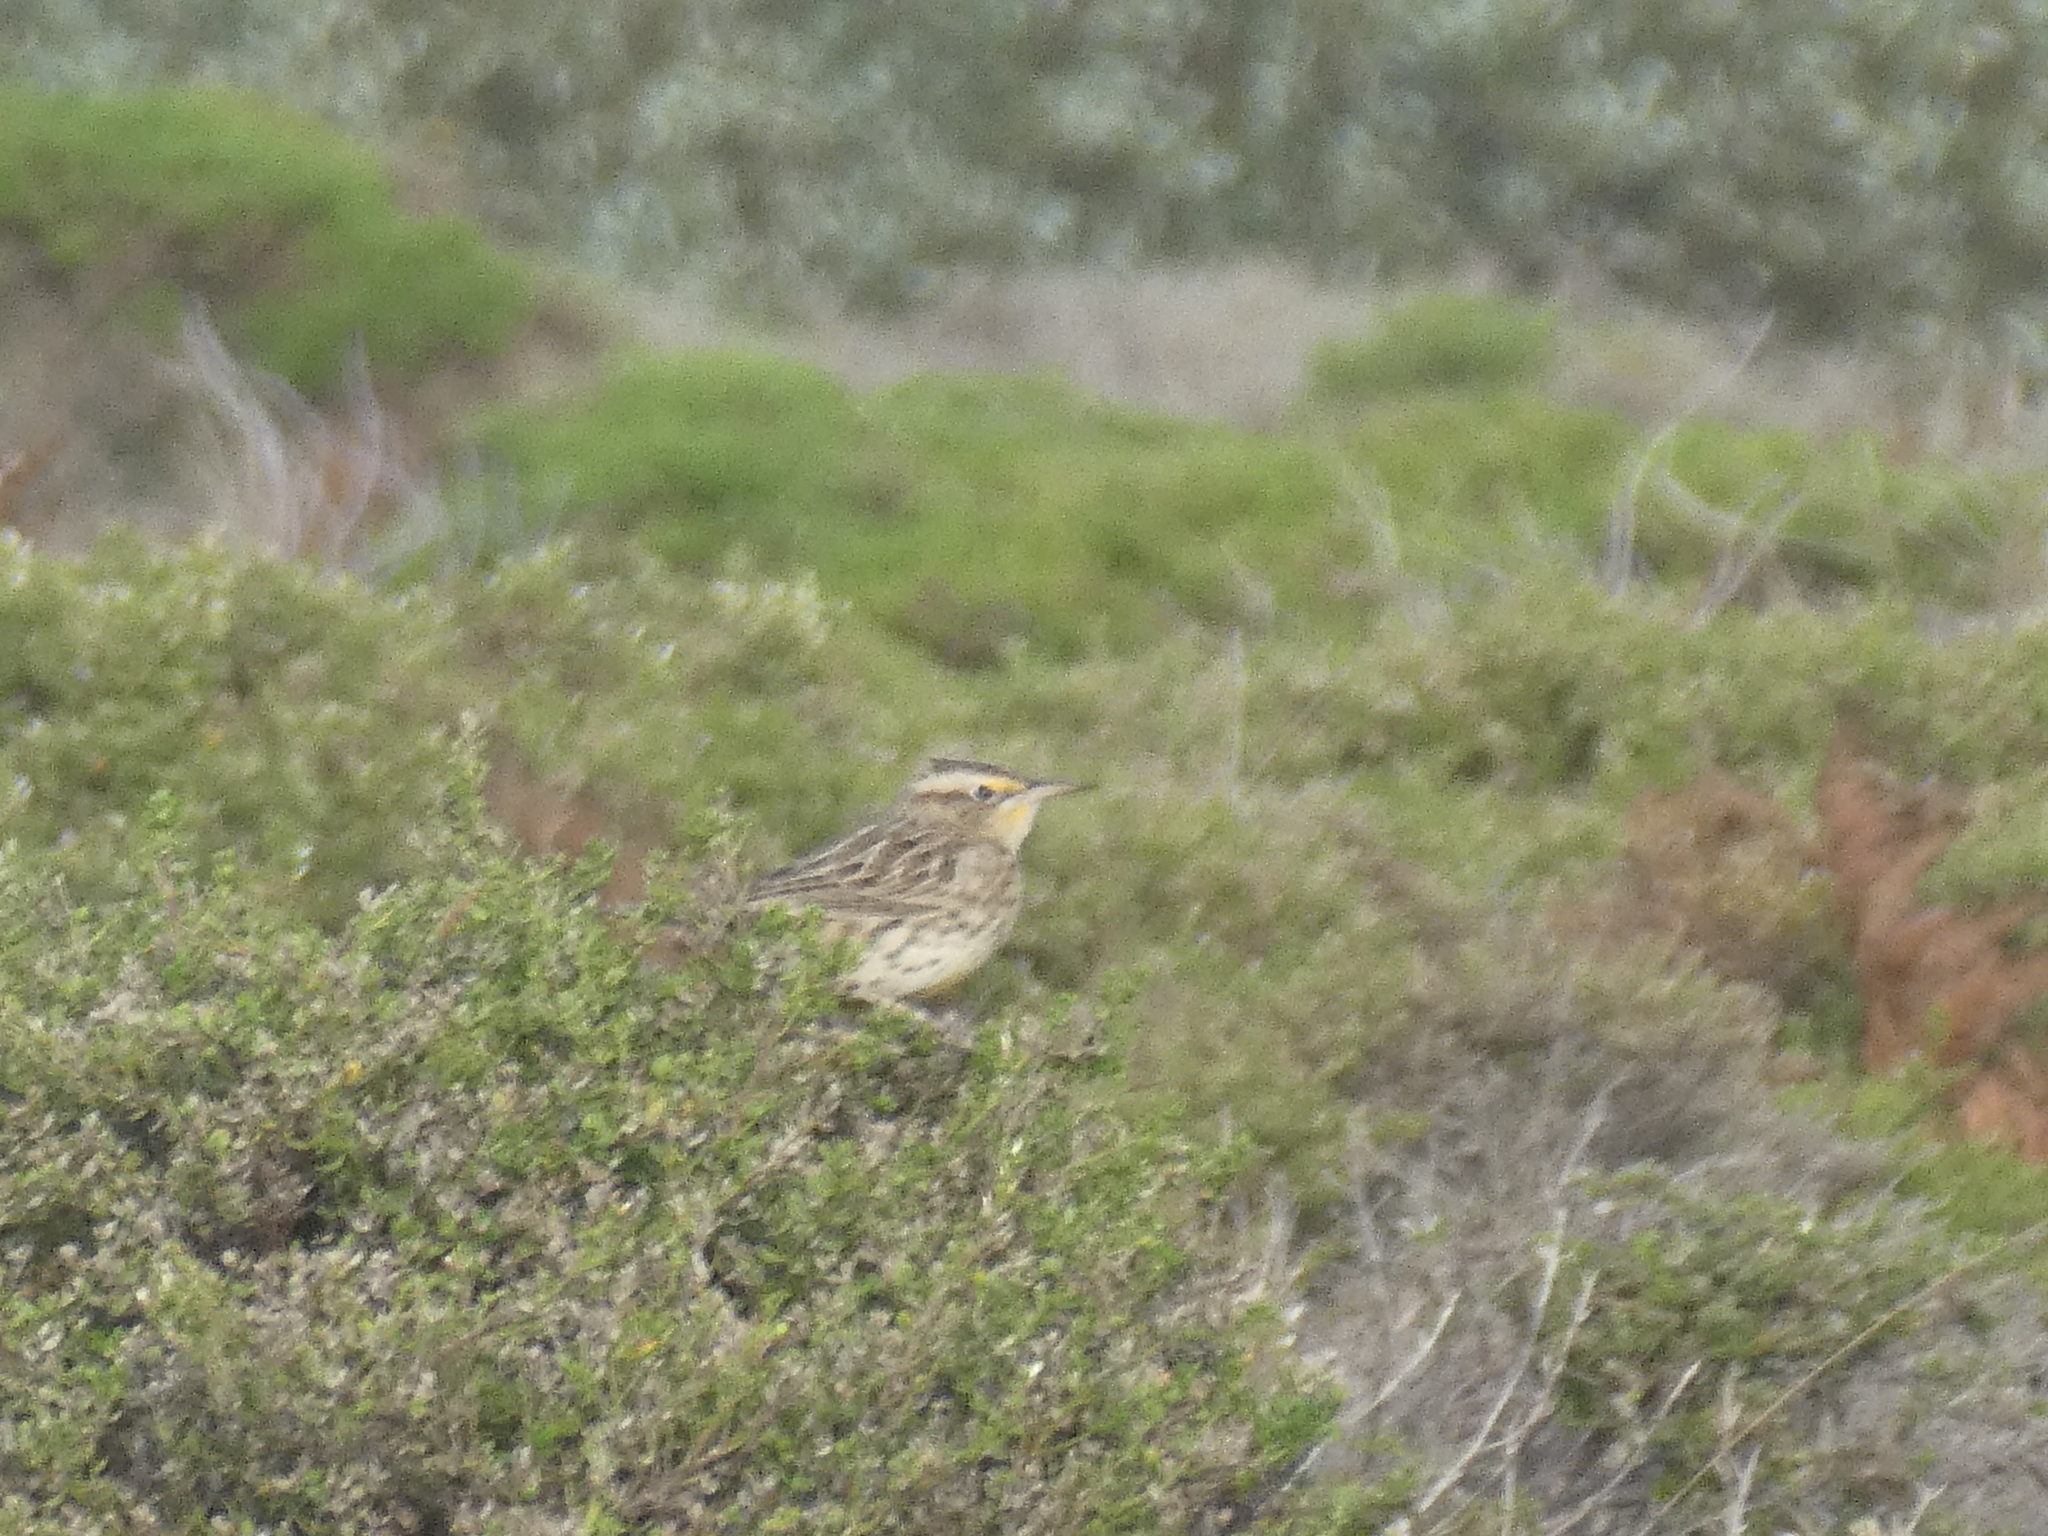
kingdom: Animalia
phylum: Chordata
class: Aves
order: Passeriformes
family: Icteridae
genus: Sturnella
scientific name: Sturnella neglecta
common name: Western meadowlark
